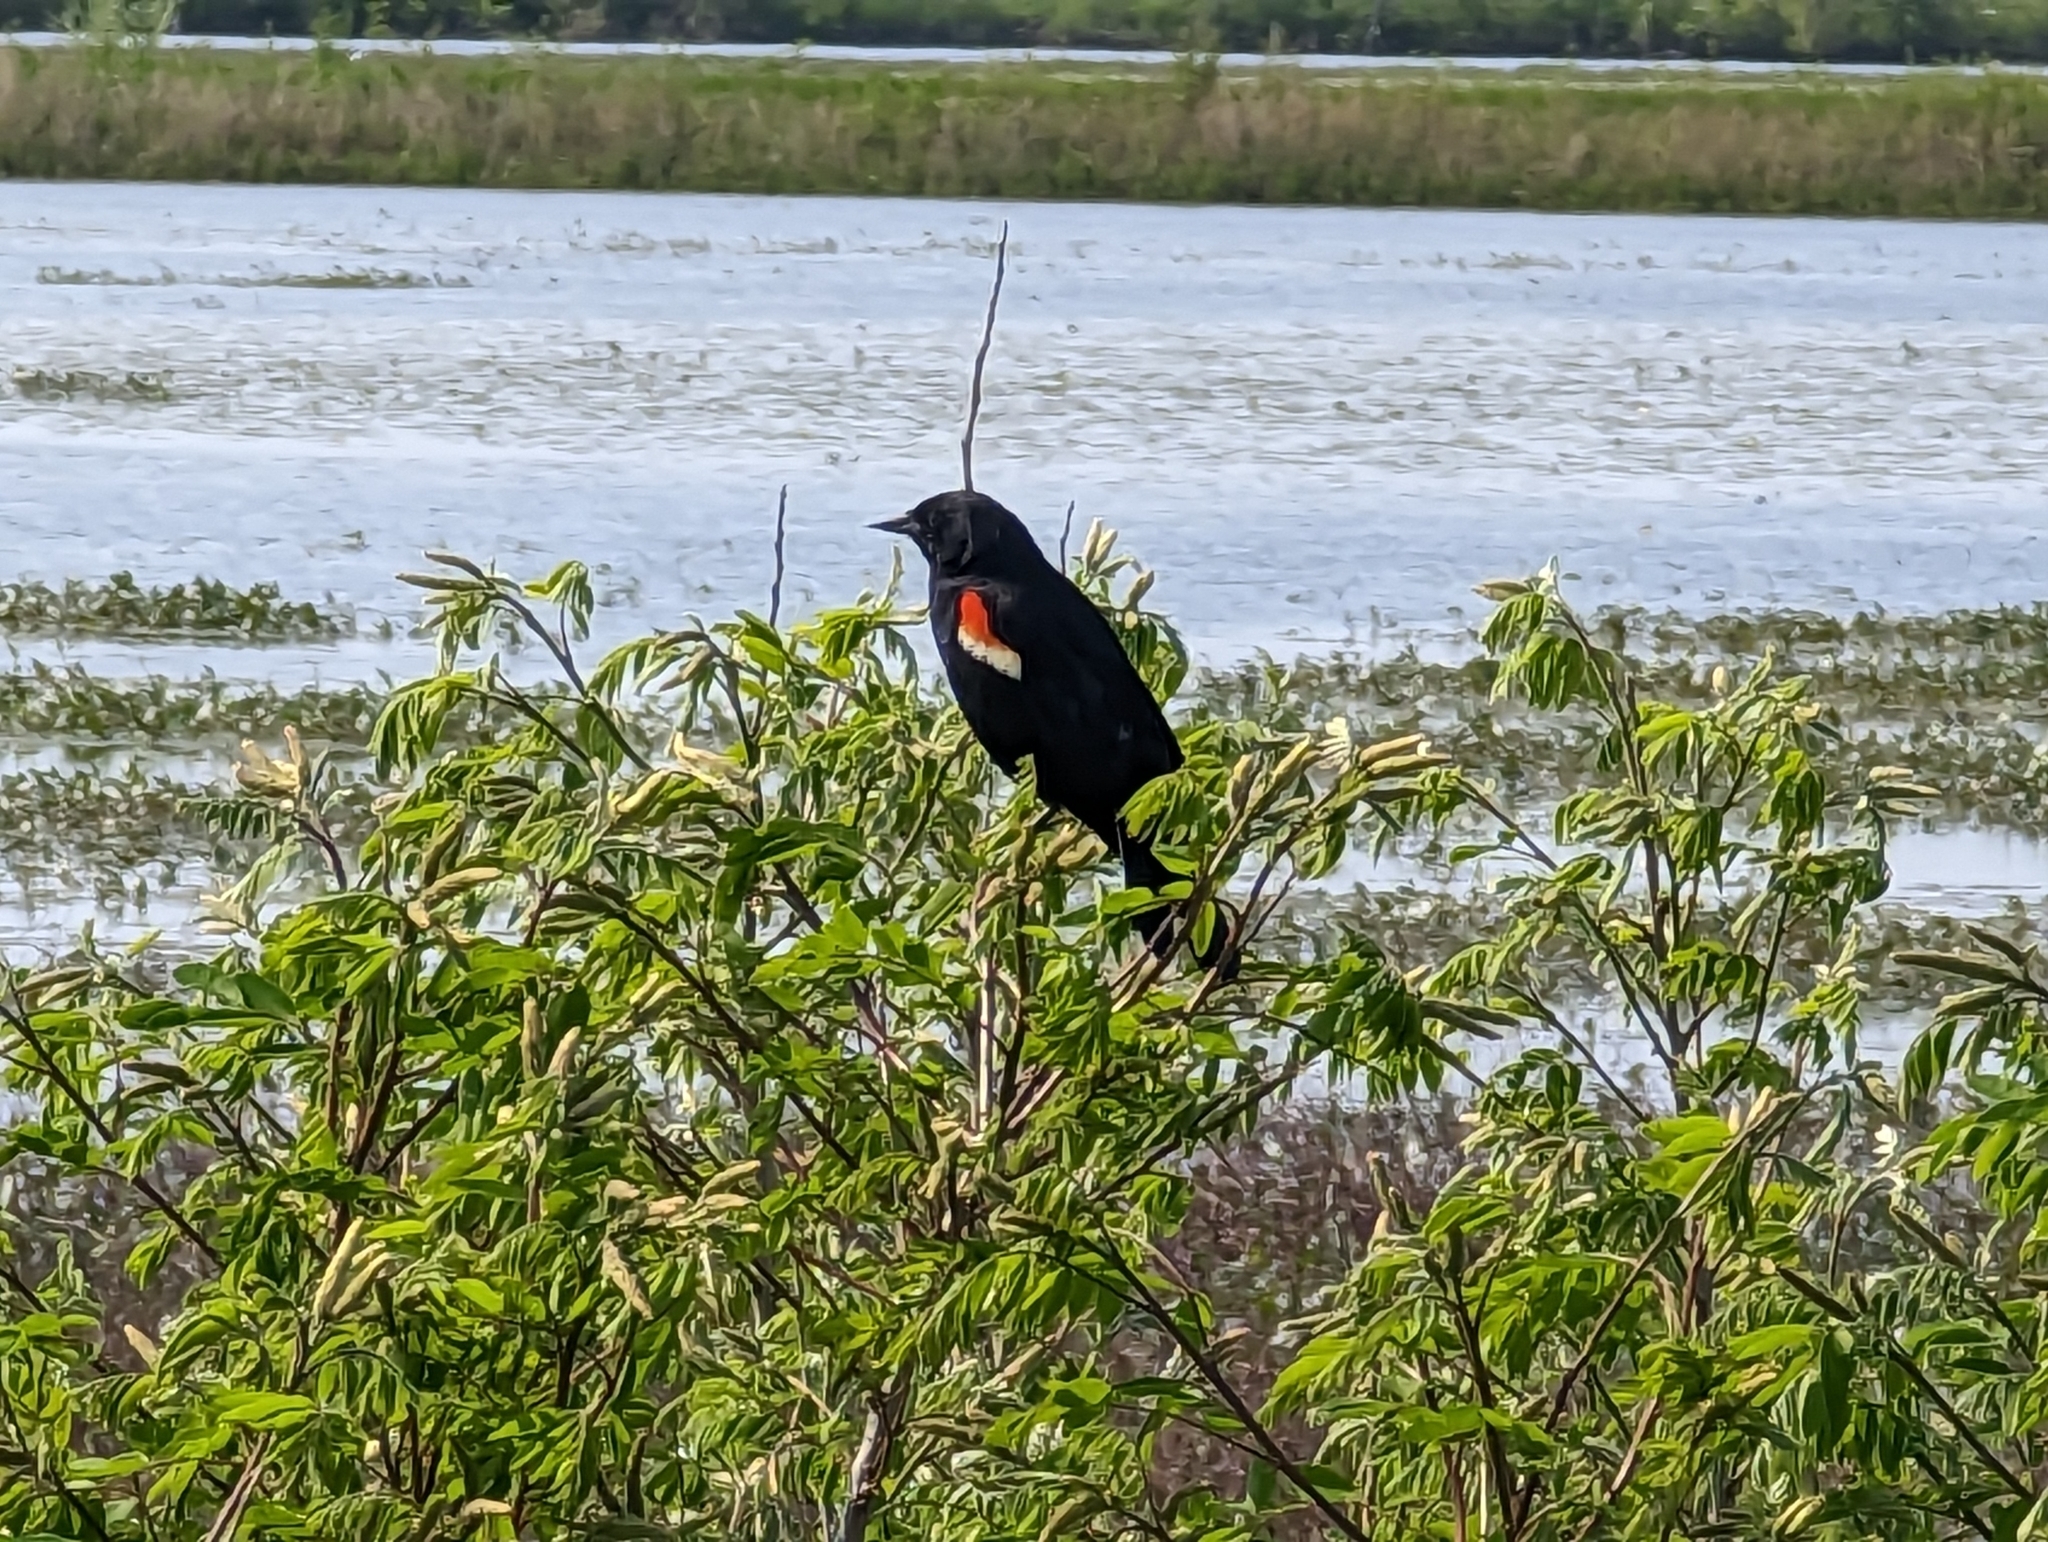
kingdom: Animalia
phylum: Chordata
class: Aves
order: Passeriformes
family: Icteridae
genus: Agelaius
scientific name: Agelaius phoeniceus
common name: Red-winged blackbird
